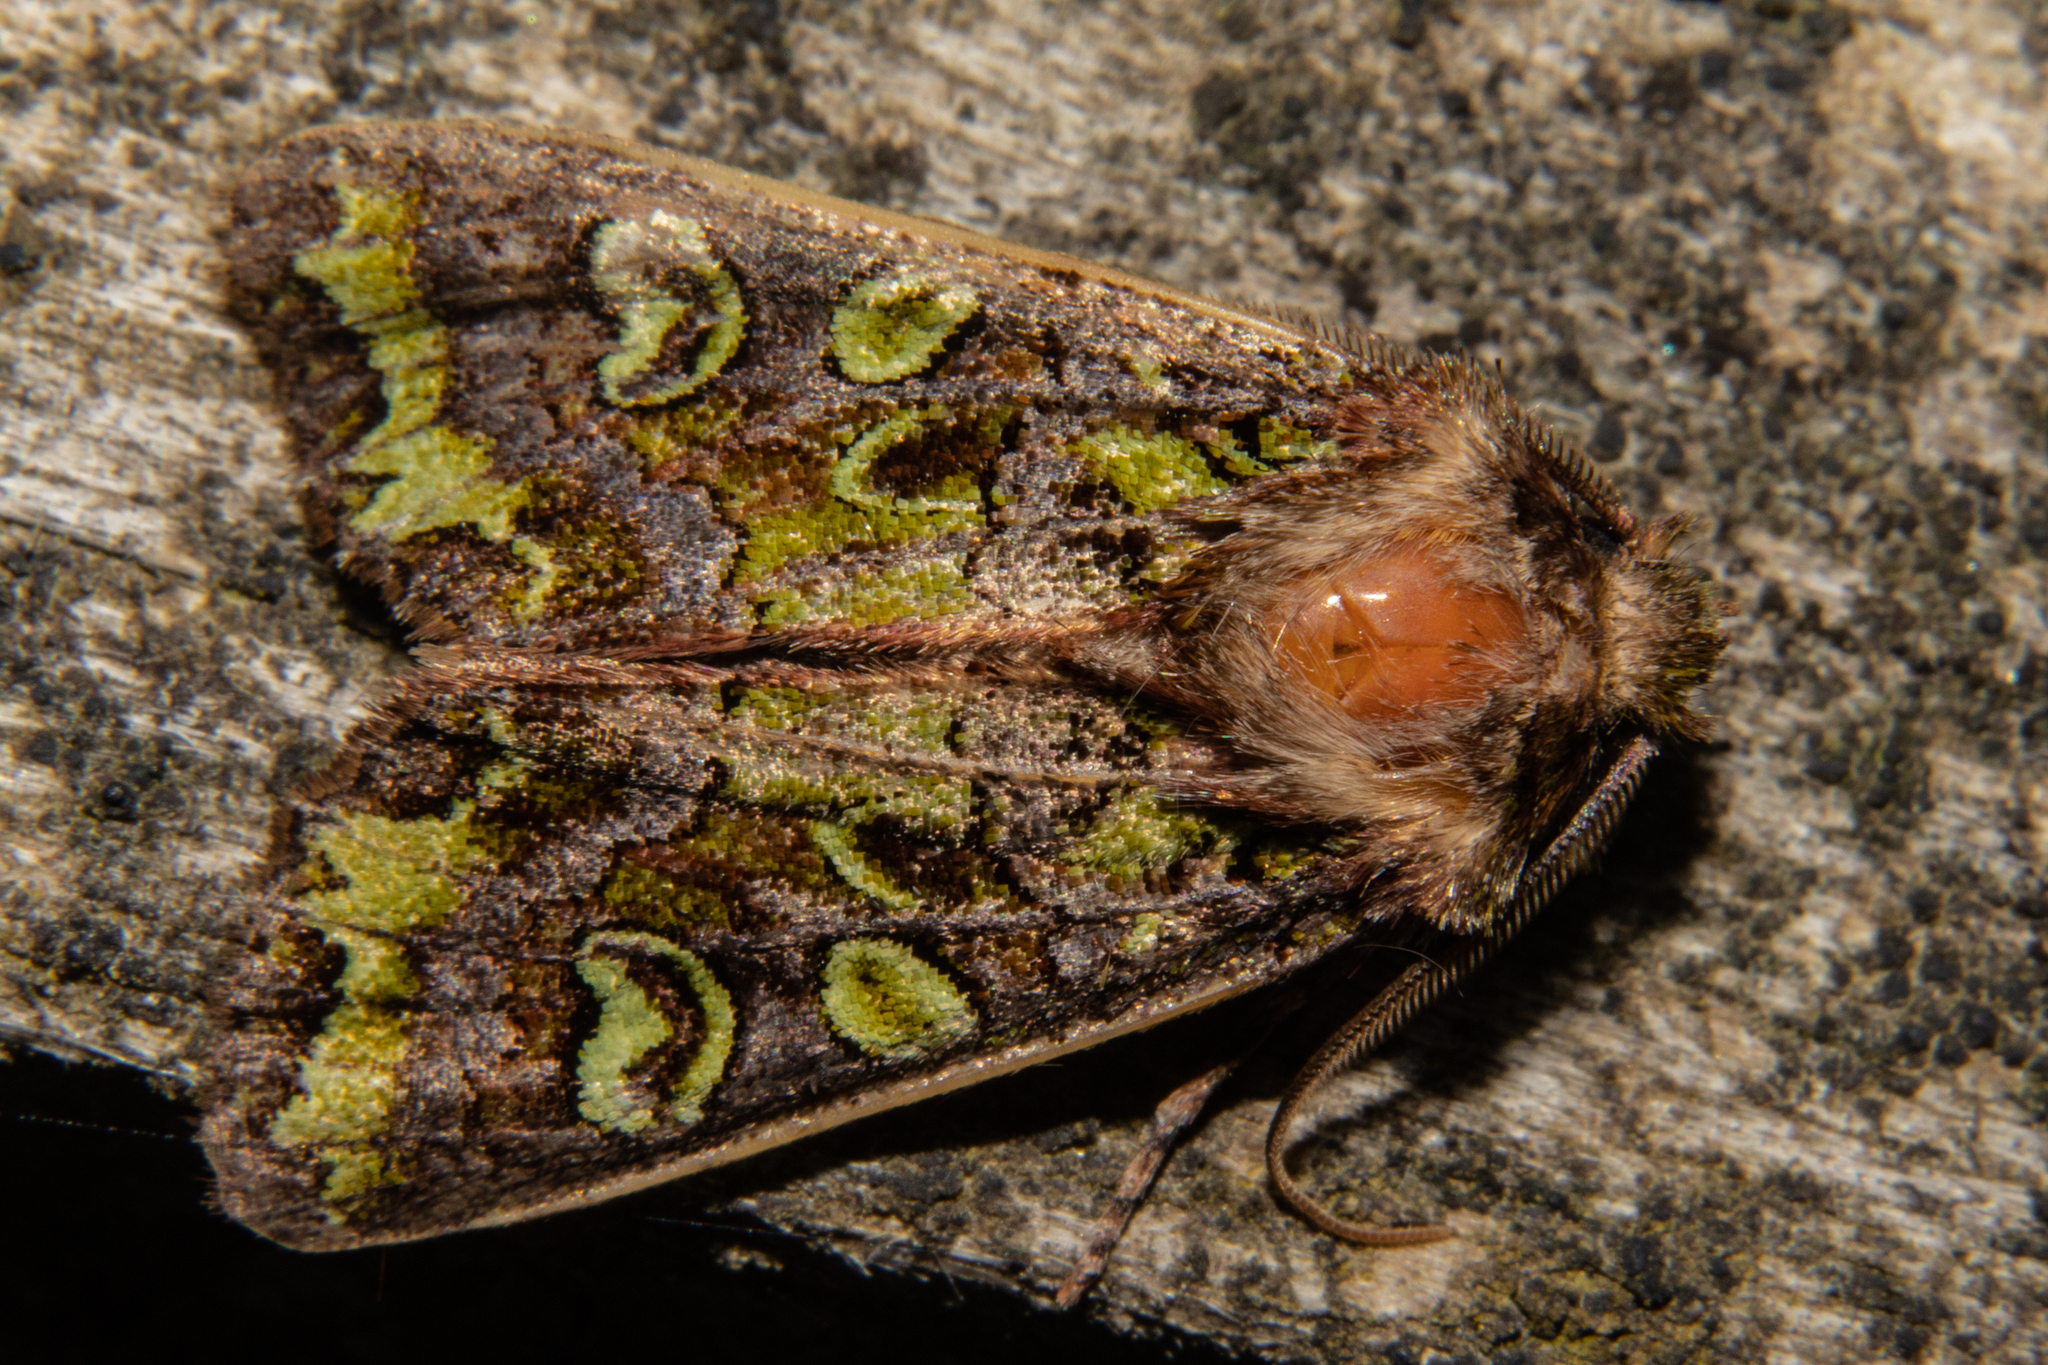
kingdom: Animalia
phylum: Arthropoda
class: Insecta
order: Lepidoptera
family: Noctuidae
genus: Ichneutica
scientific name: Ichneutica chlorodonta
